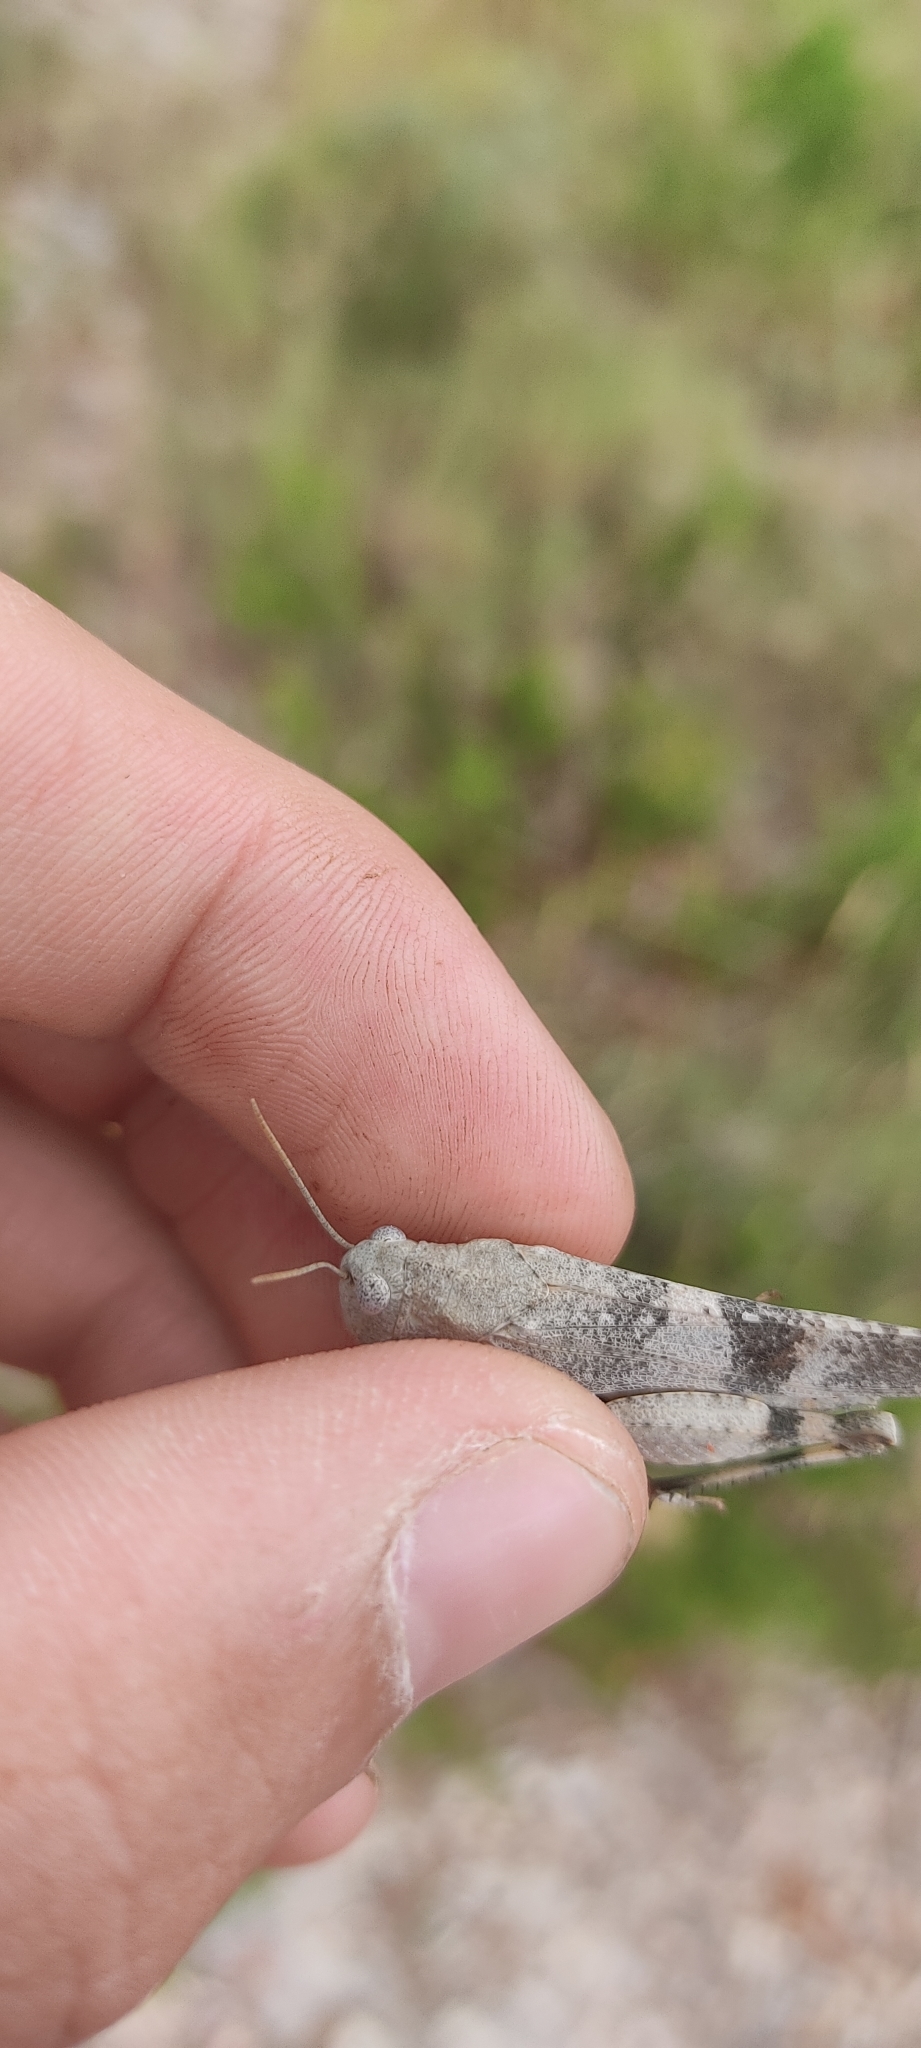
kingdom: Animalia
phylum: Arthropoda
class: Insecta
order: Orthoptera
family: Acrididae
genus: Oedipoda
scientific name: Oedipoda germanica
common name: Red band-winged grasshopper
